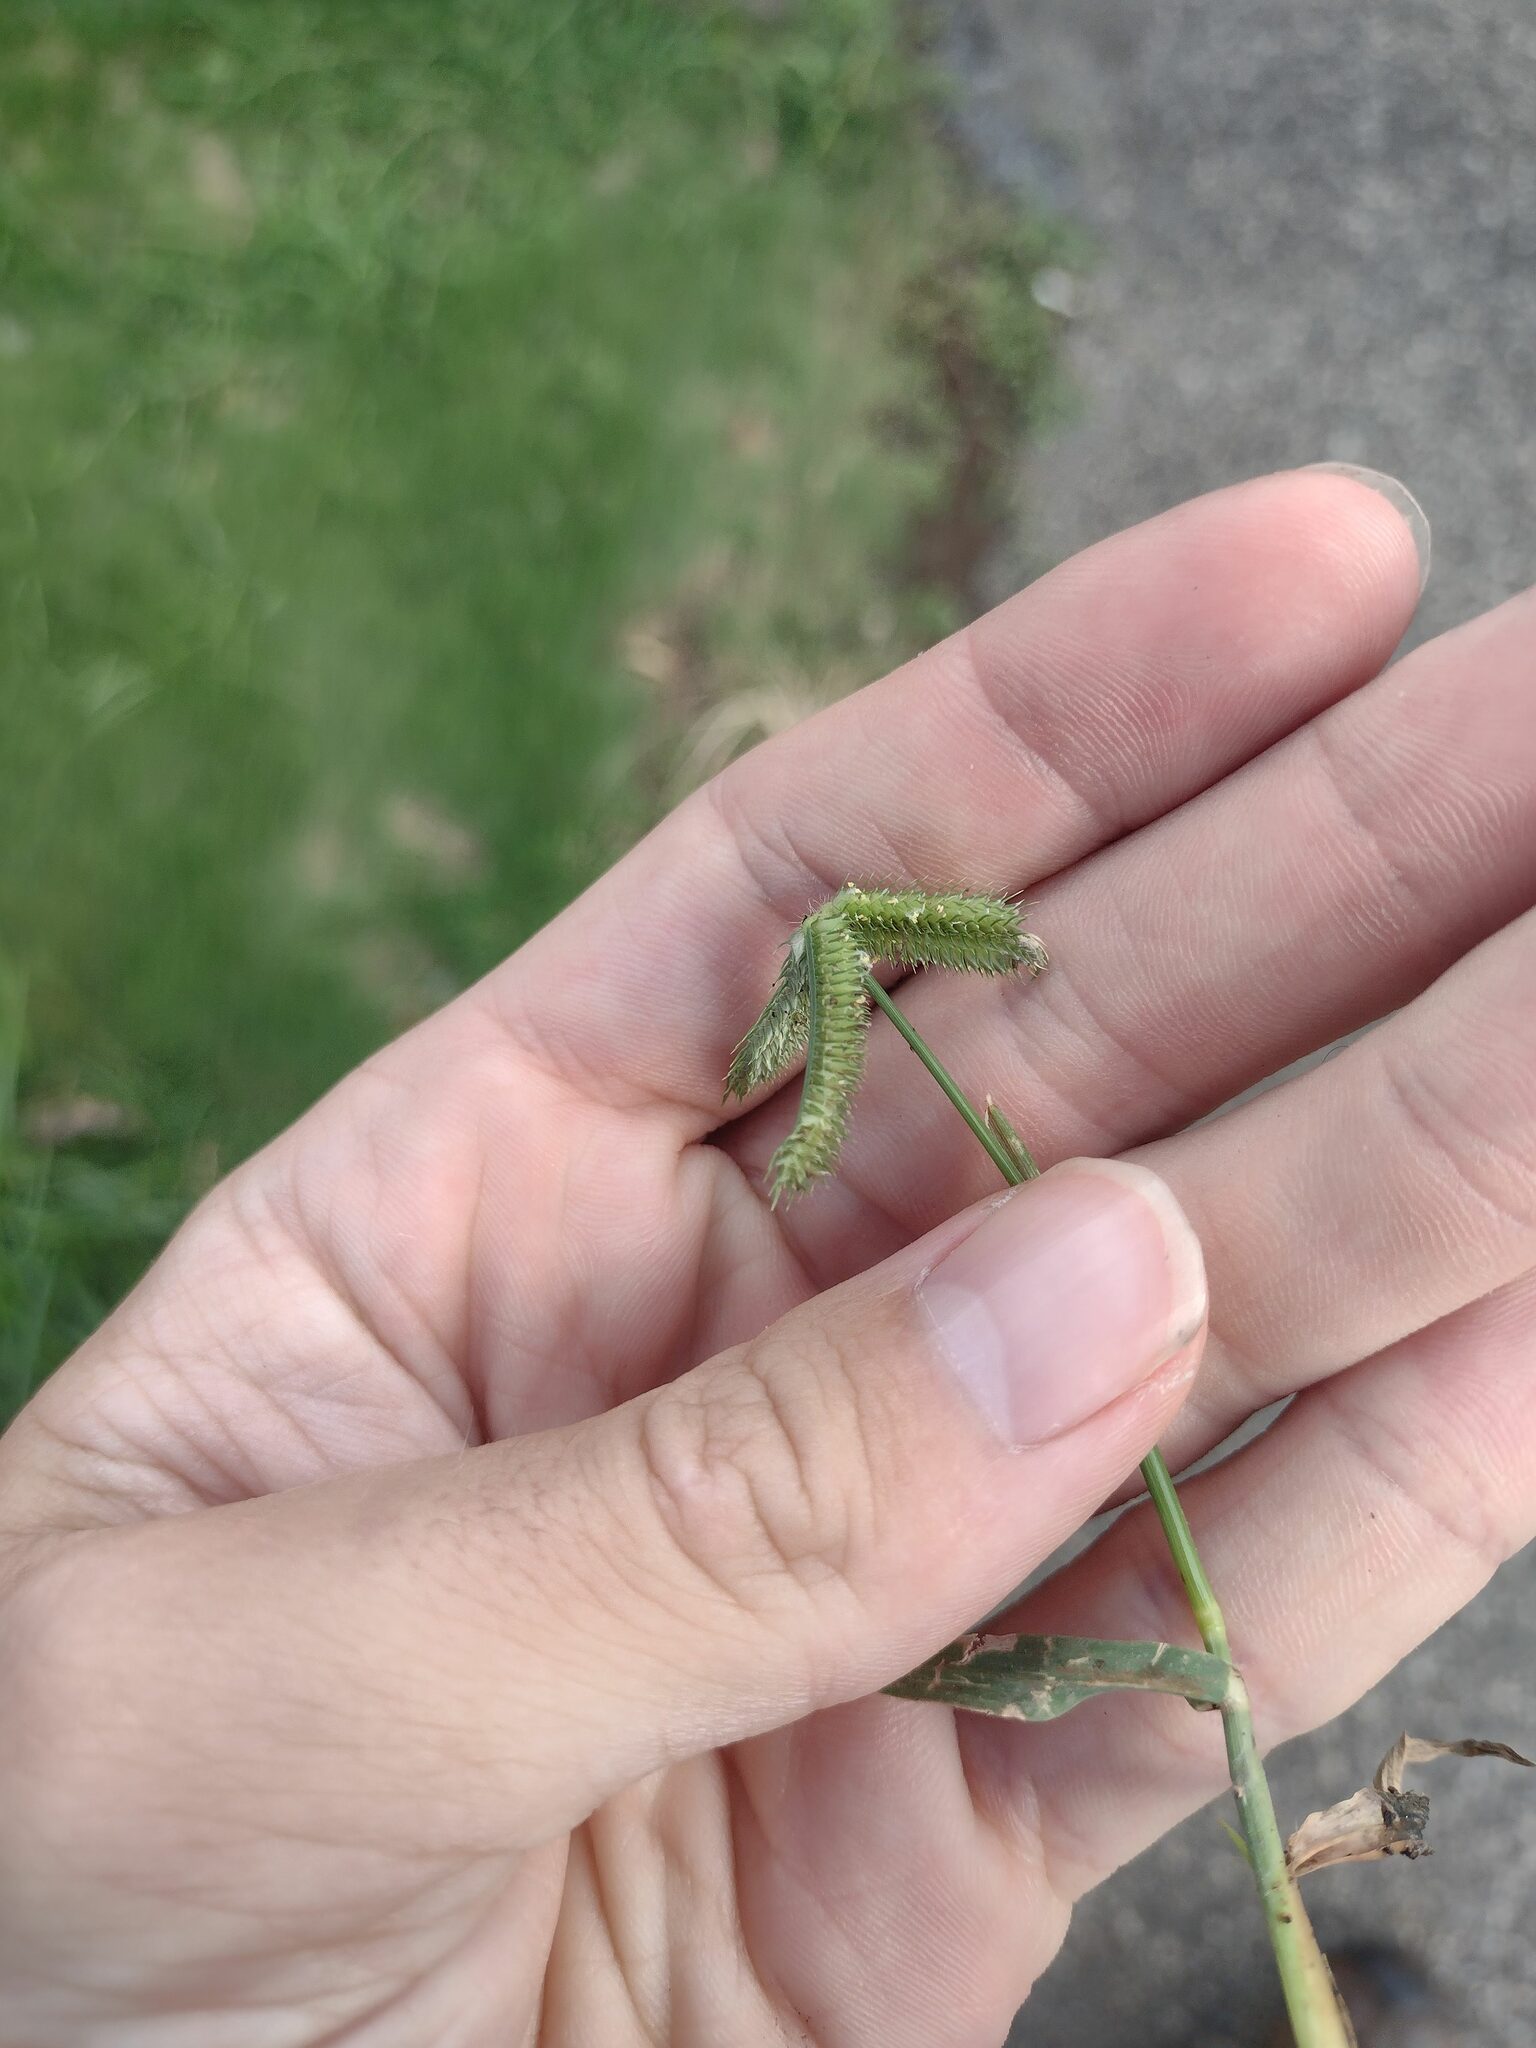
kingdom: Plantae
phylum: Tracheophyta
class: Liliopsida
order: Poales
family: Poaceae
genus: Dactyloctenium
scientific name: Dactyloctenium aegyptium
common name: Egyptian grass
